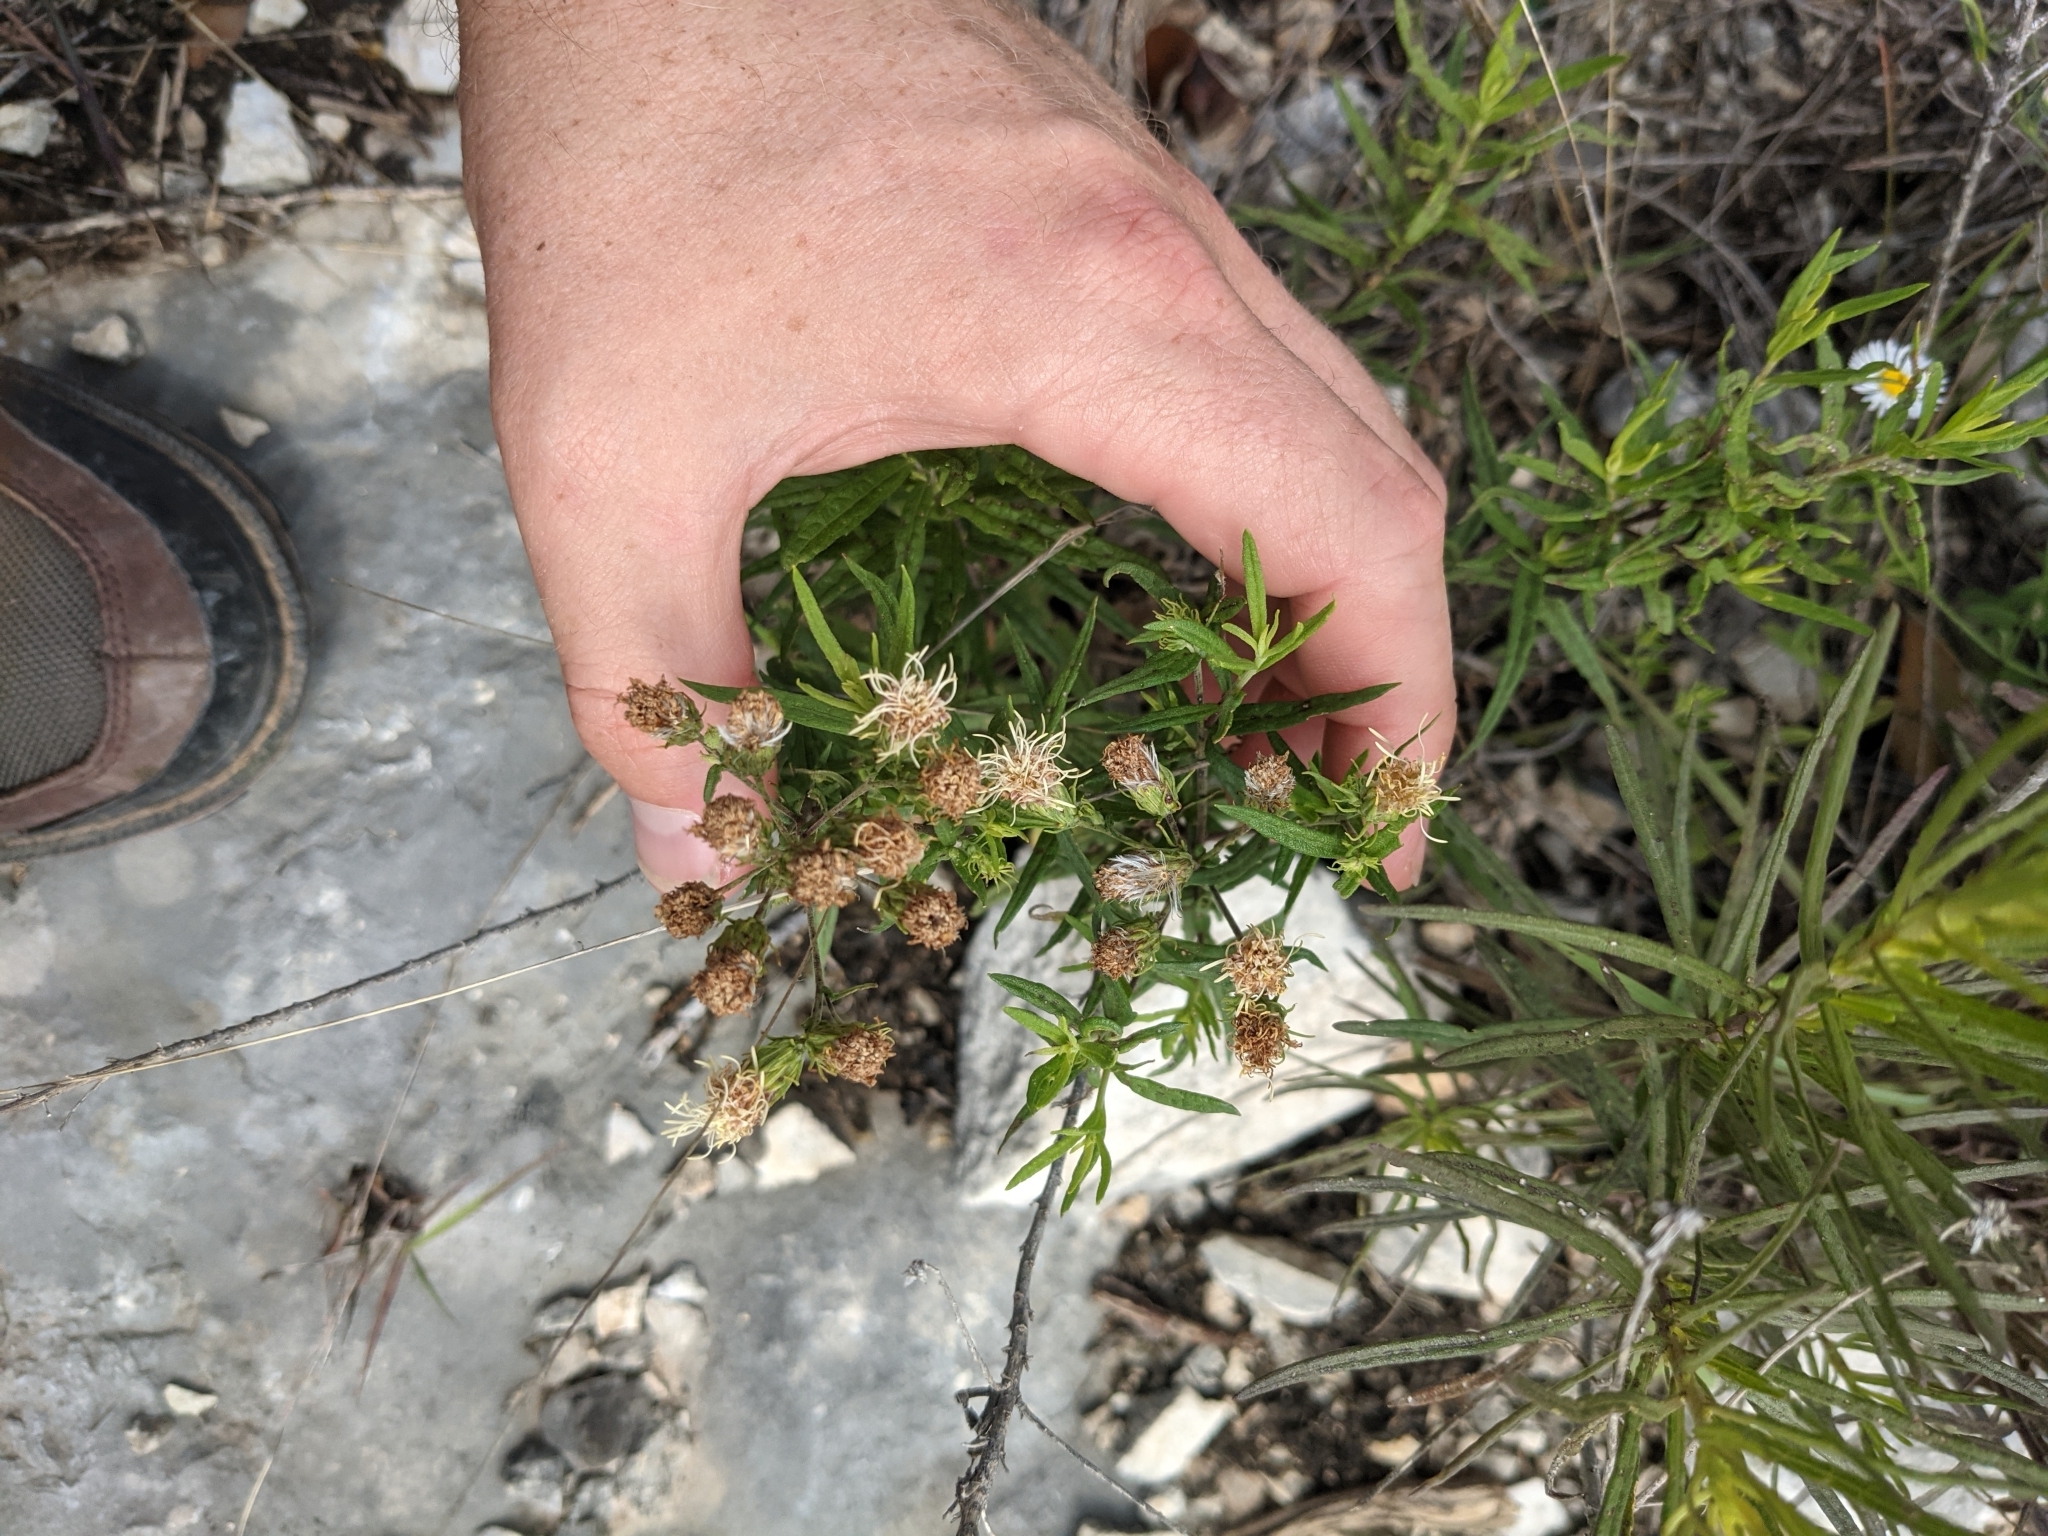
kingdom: Plantae
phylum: Tracheophyta
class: Magnoliopsida
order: Asterales
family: Asteraceae
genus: Brickellia
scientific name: Brickellia eupatorioides
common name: False boneset
